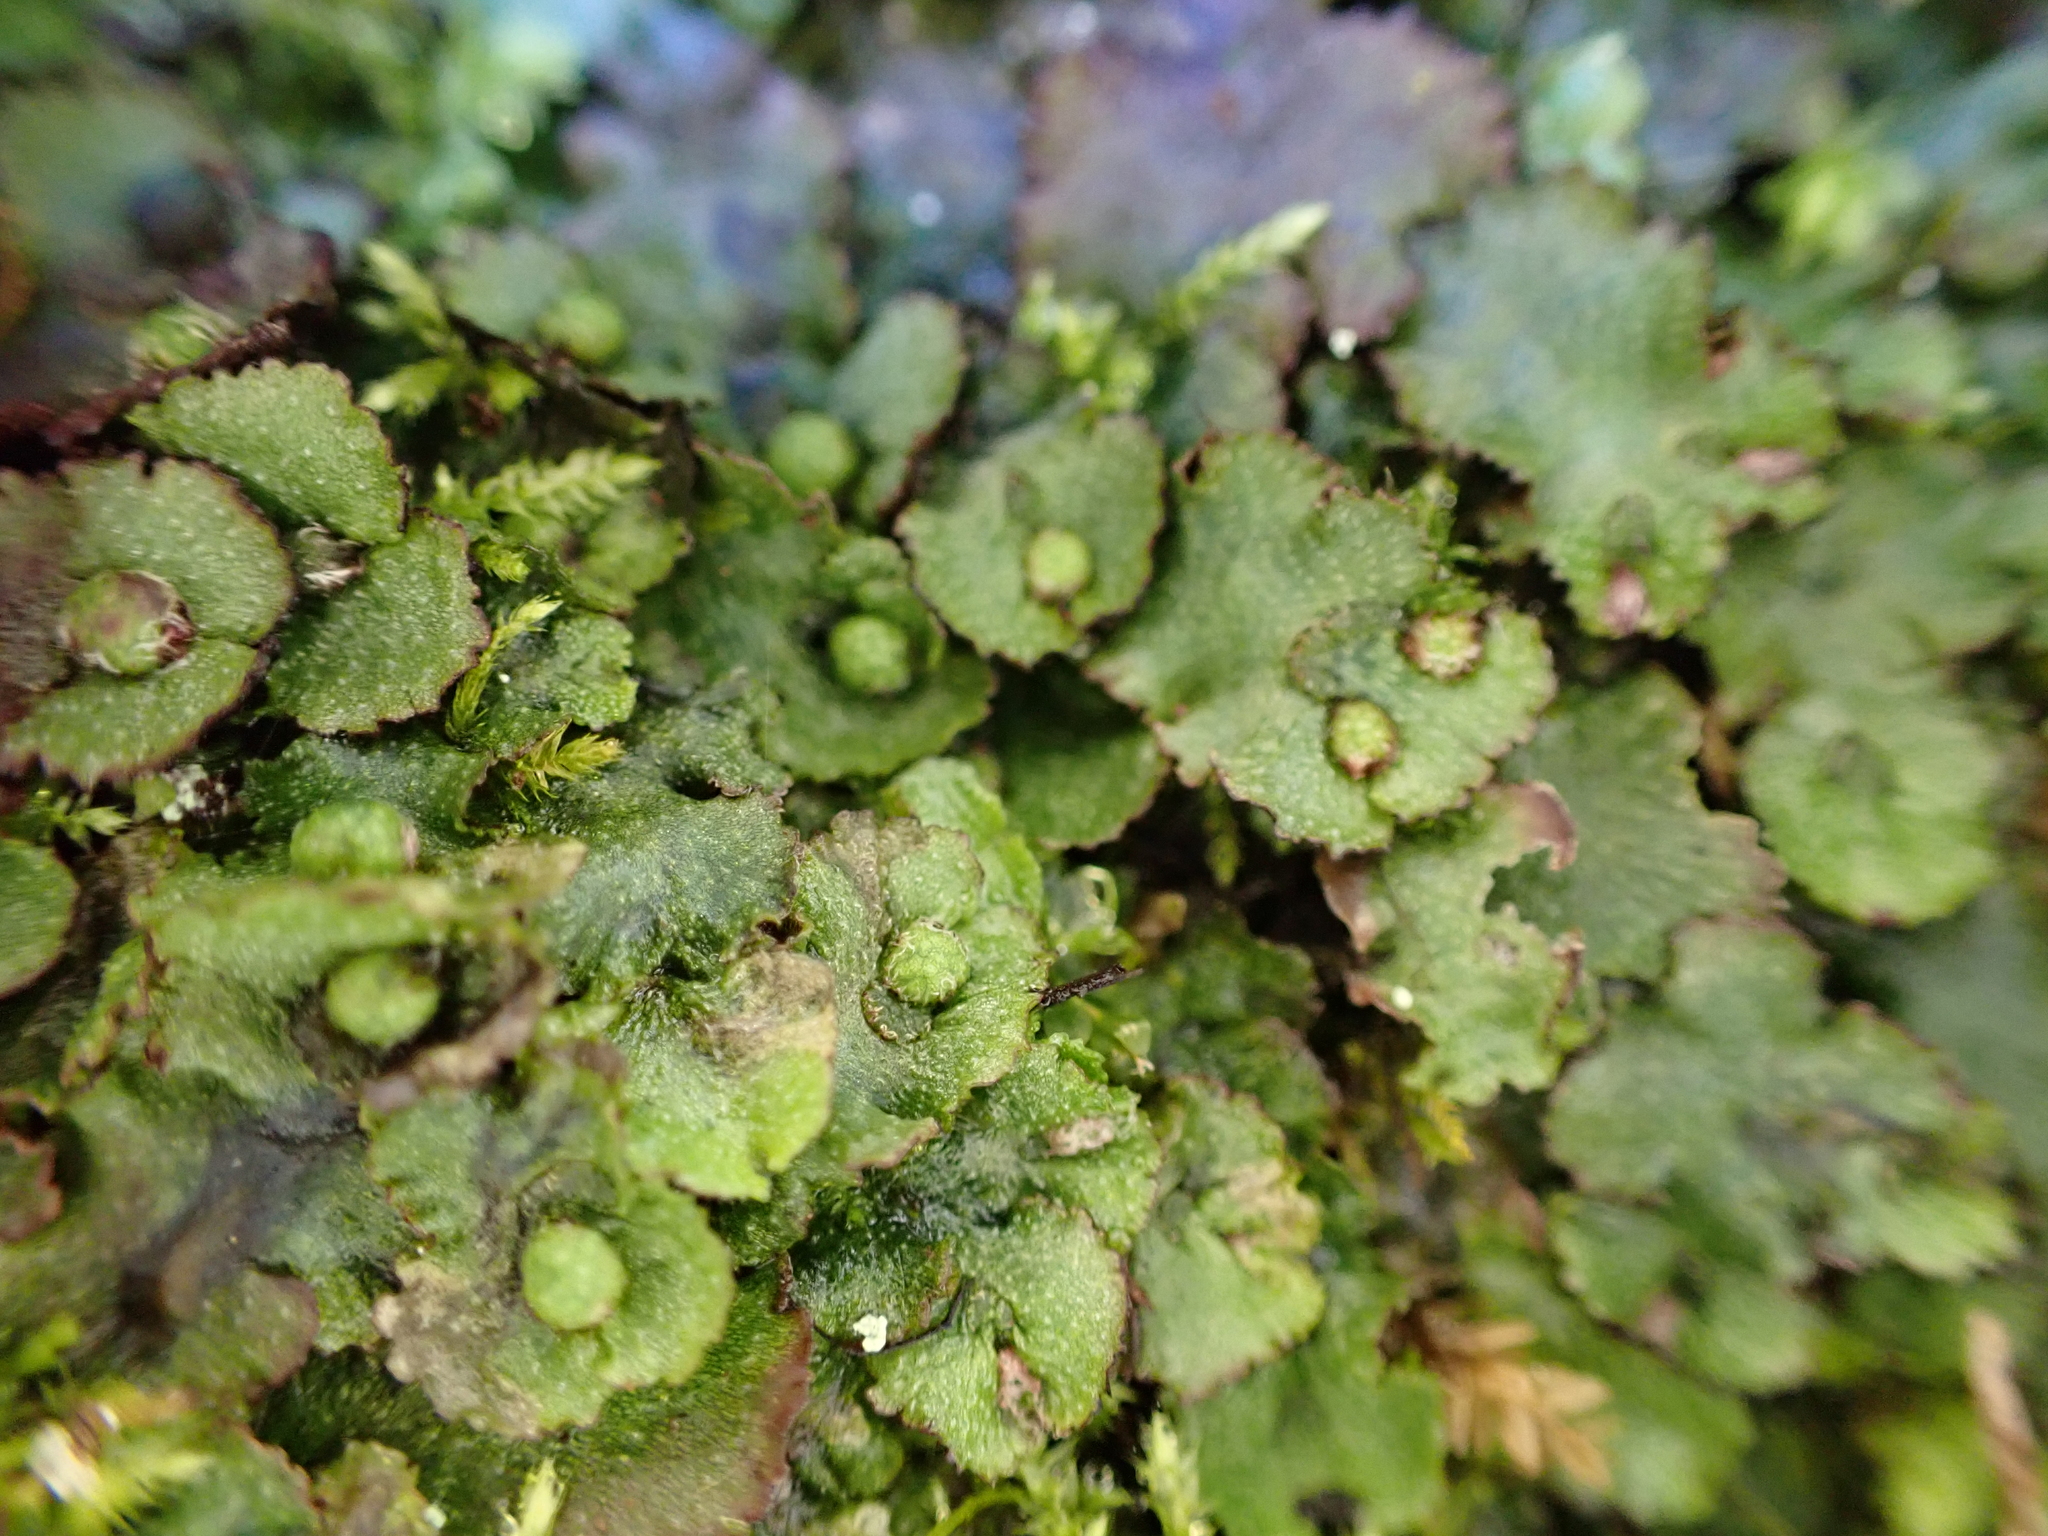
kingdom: Plantae
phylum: Marchantiophyta
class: Marchantiopsida
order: Marchantiales
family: Aytoniaceae
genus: Reboulia
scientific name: Reboulia hemisphaerica
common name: Purple-margined liverwort
